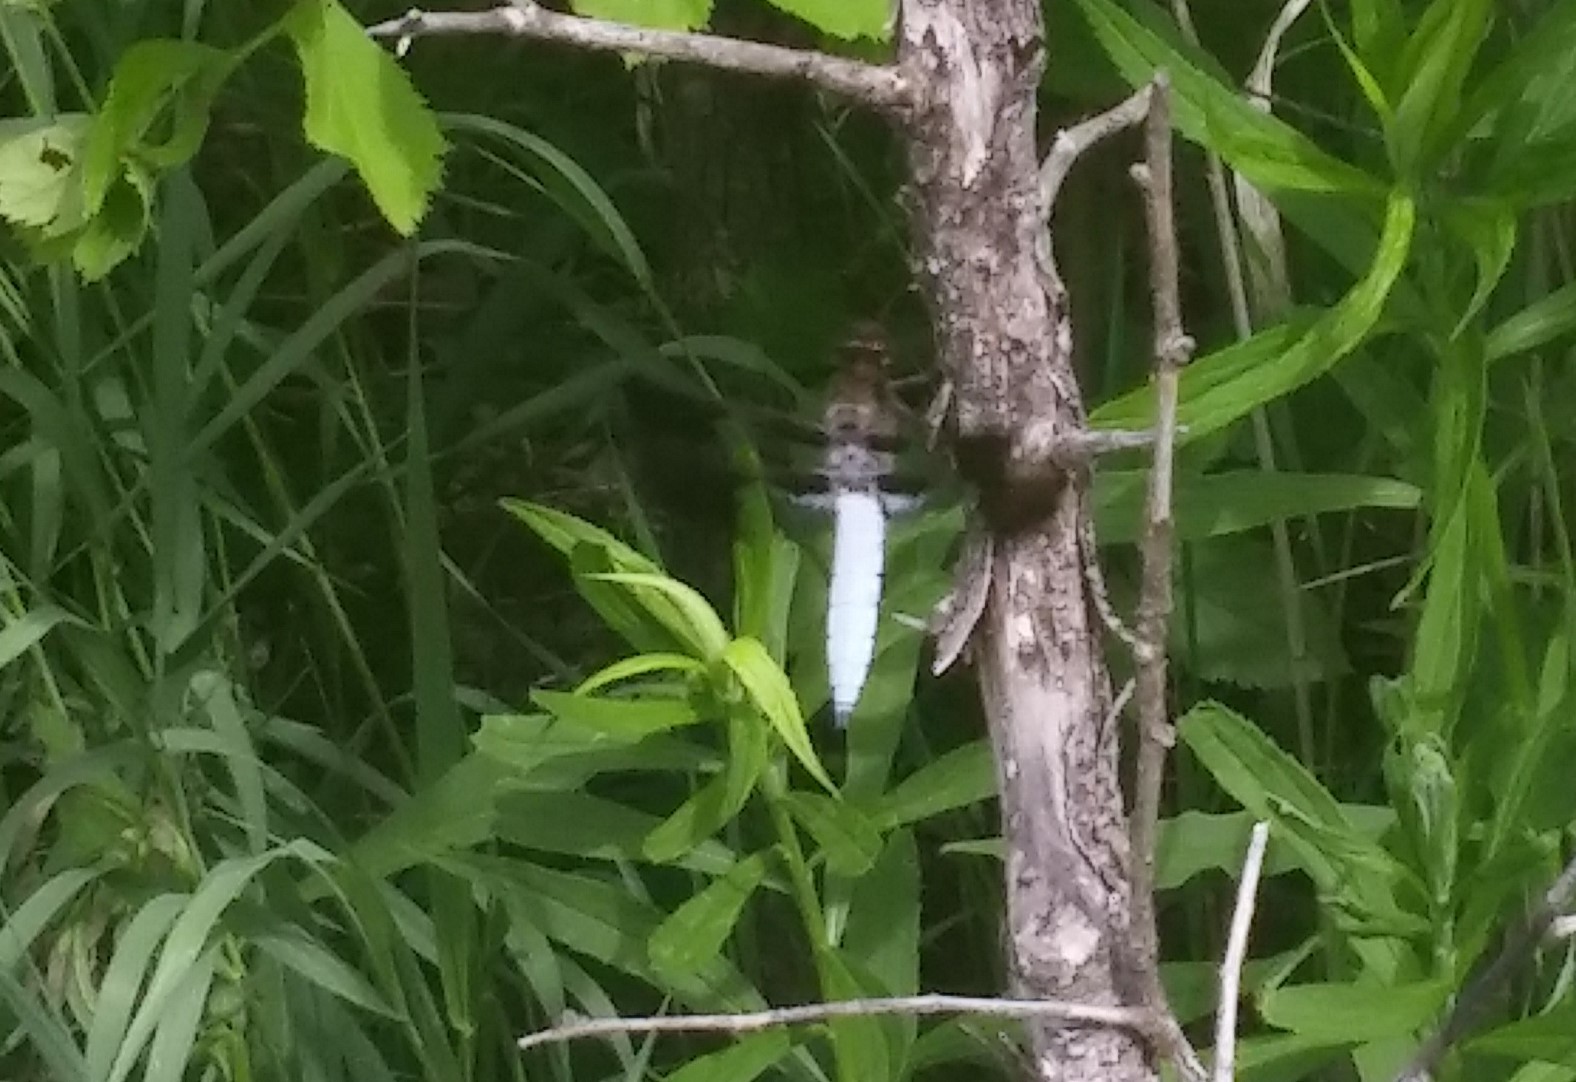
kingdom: Animalia
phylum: Arthropoda
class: Insecta
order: Odonata
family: Libellulidae
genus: Plathemis
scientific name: Plathemis lydia
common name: Common whitetail
